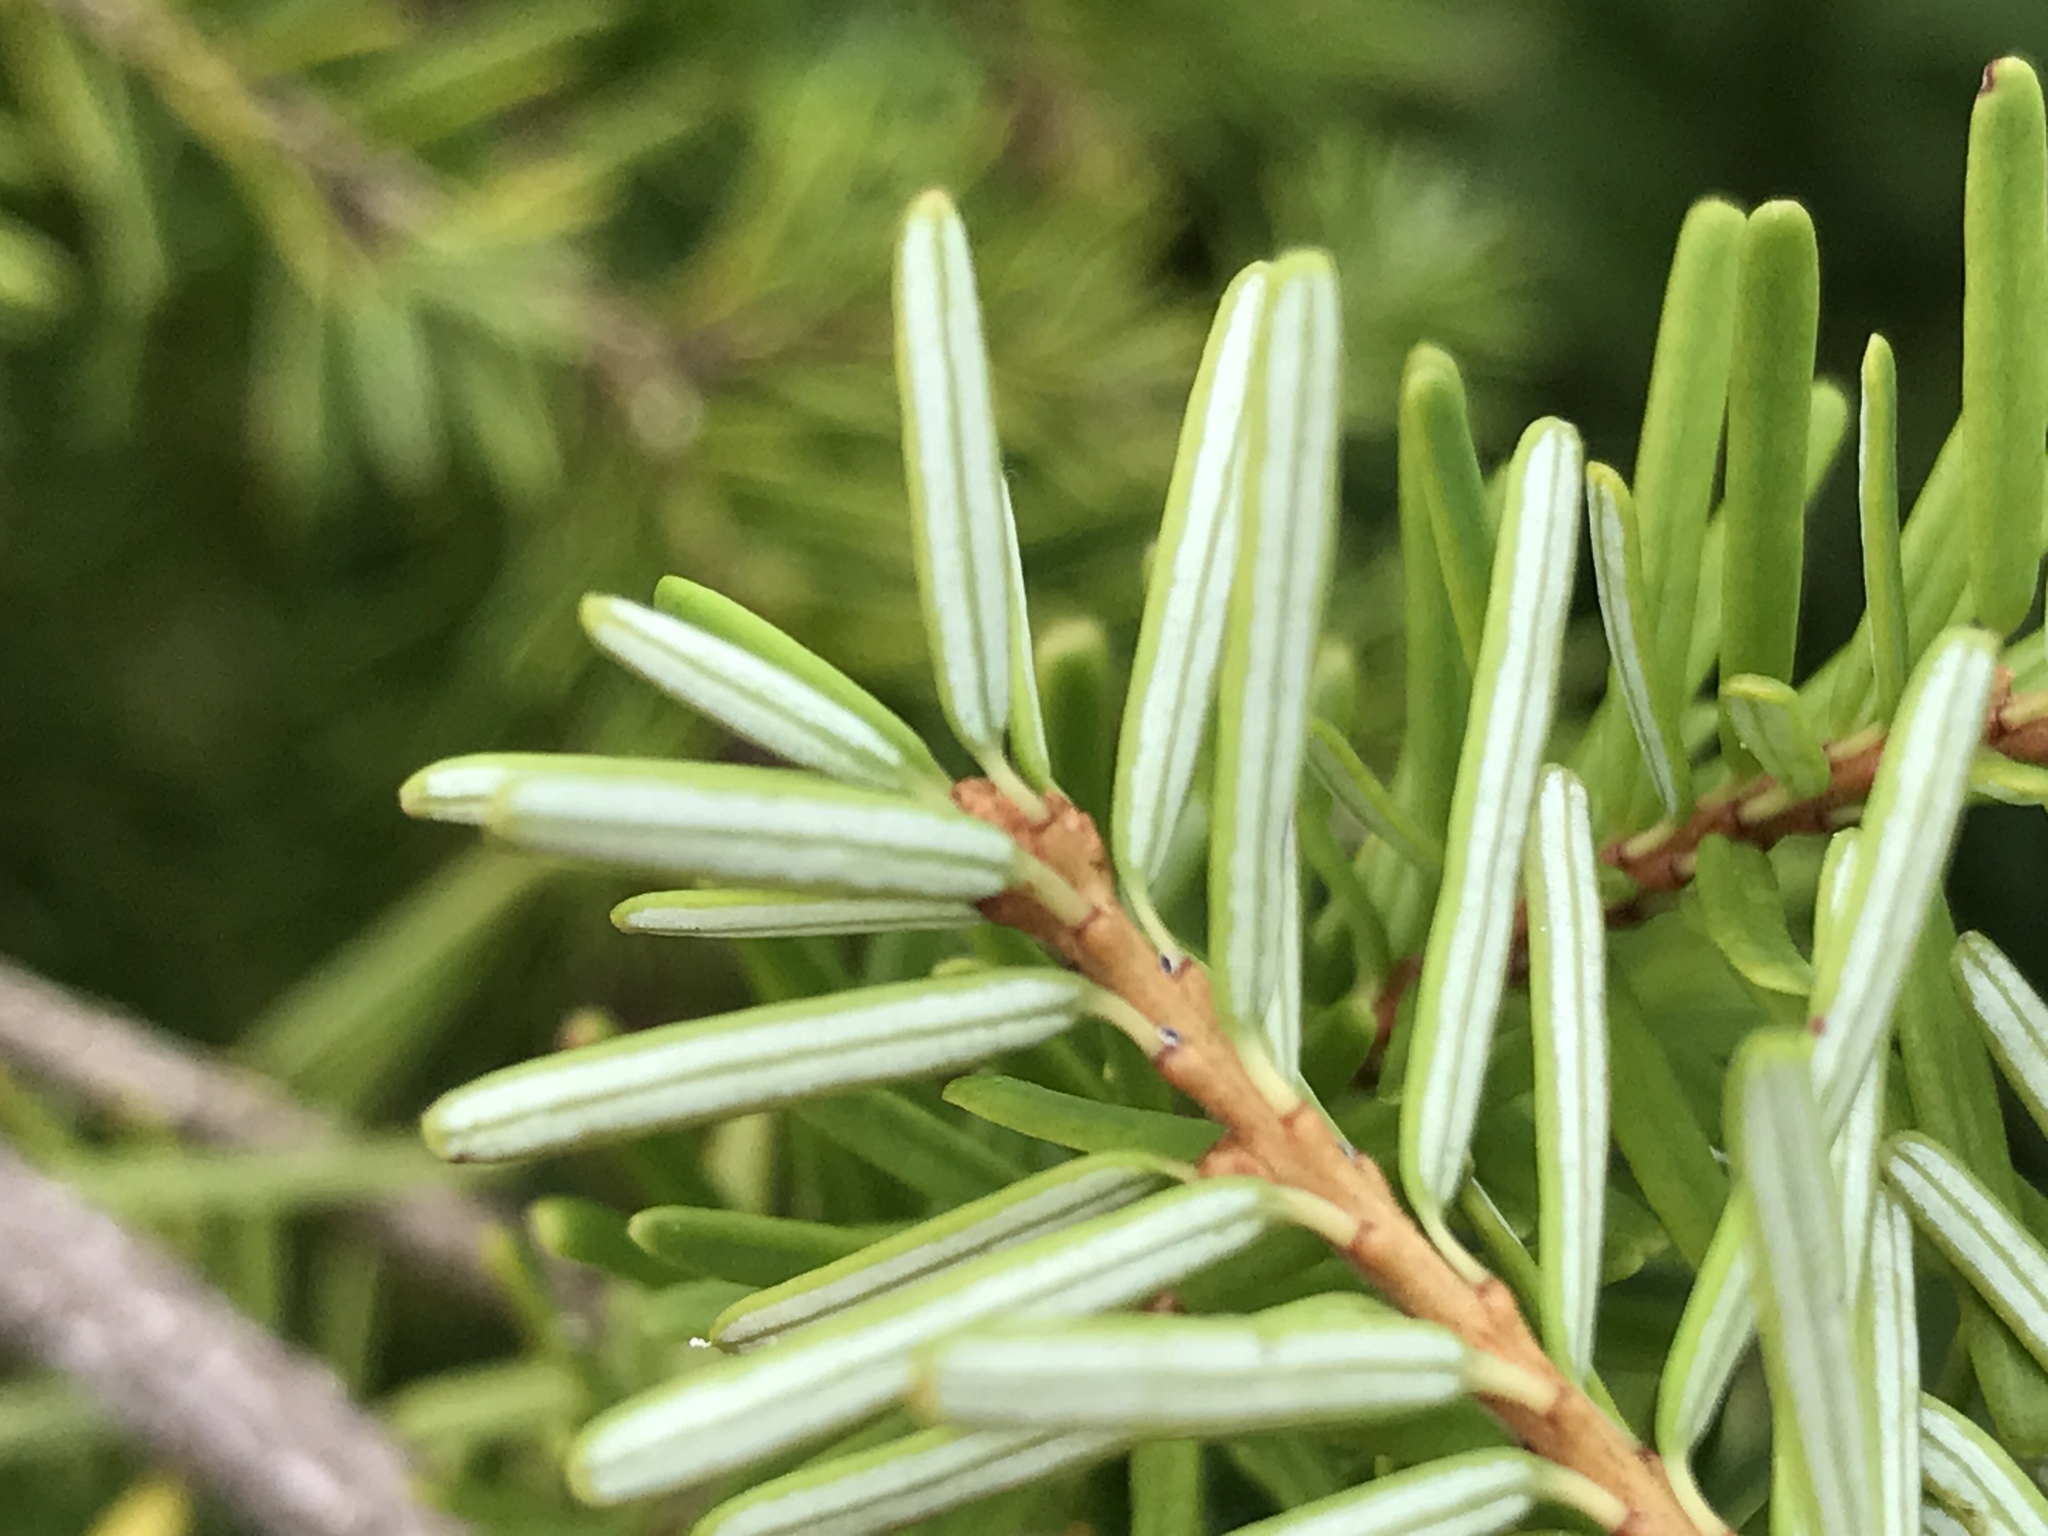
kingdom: Plantae
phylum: Tracheophyta
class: Pinopsida
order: Pinales
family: Pinaceae
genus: Tsuga
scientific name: Tsuga caroliniana
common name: Carolina hemlock
